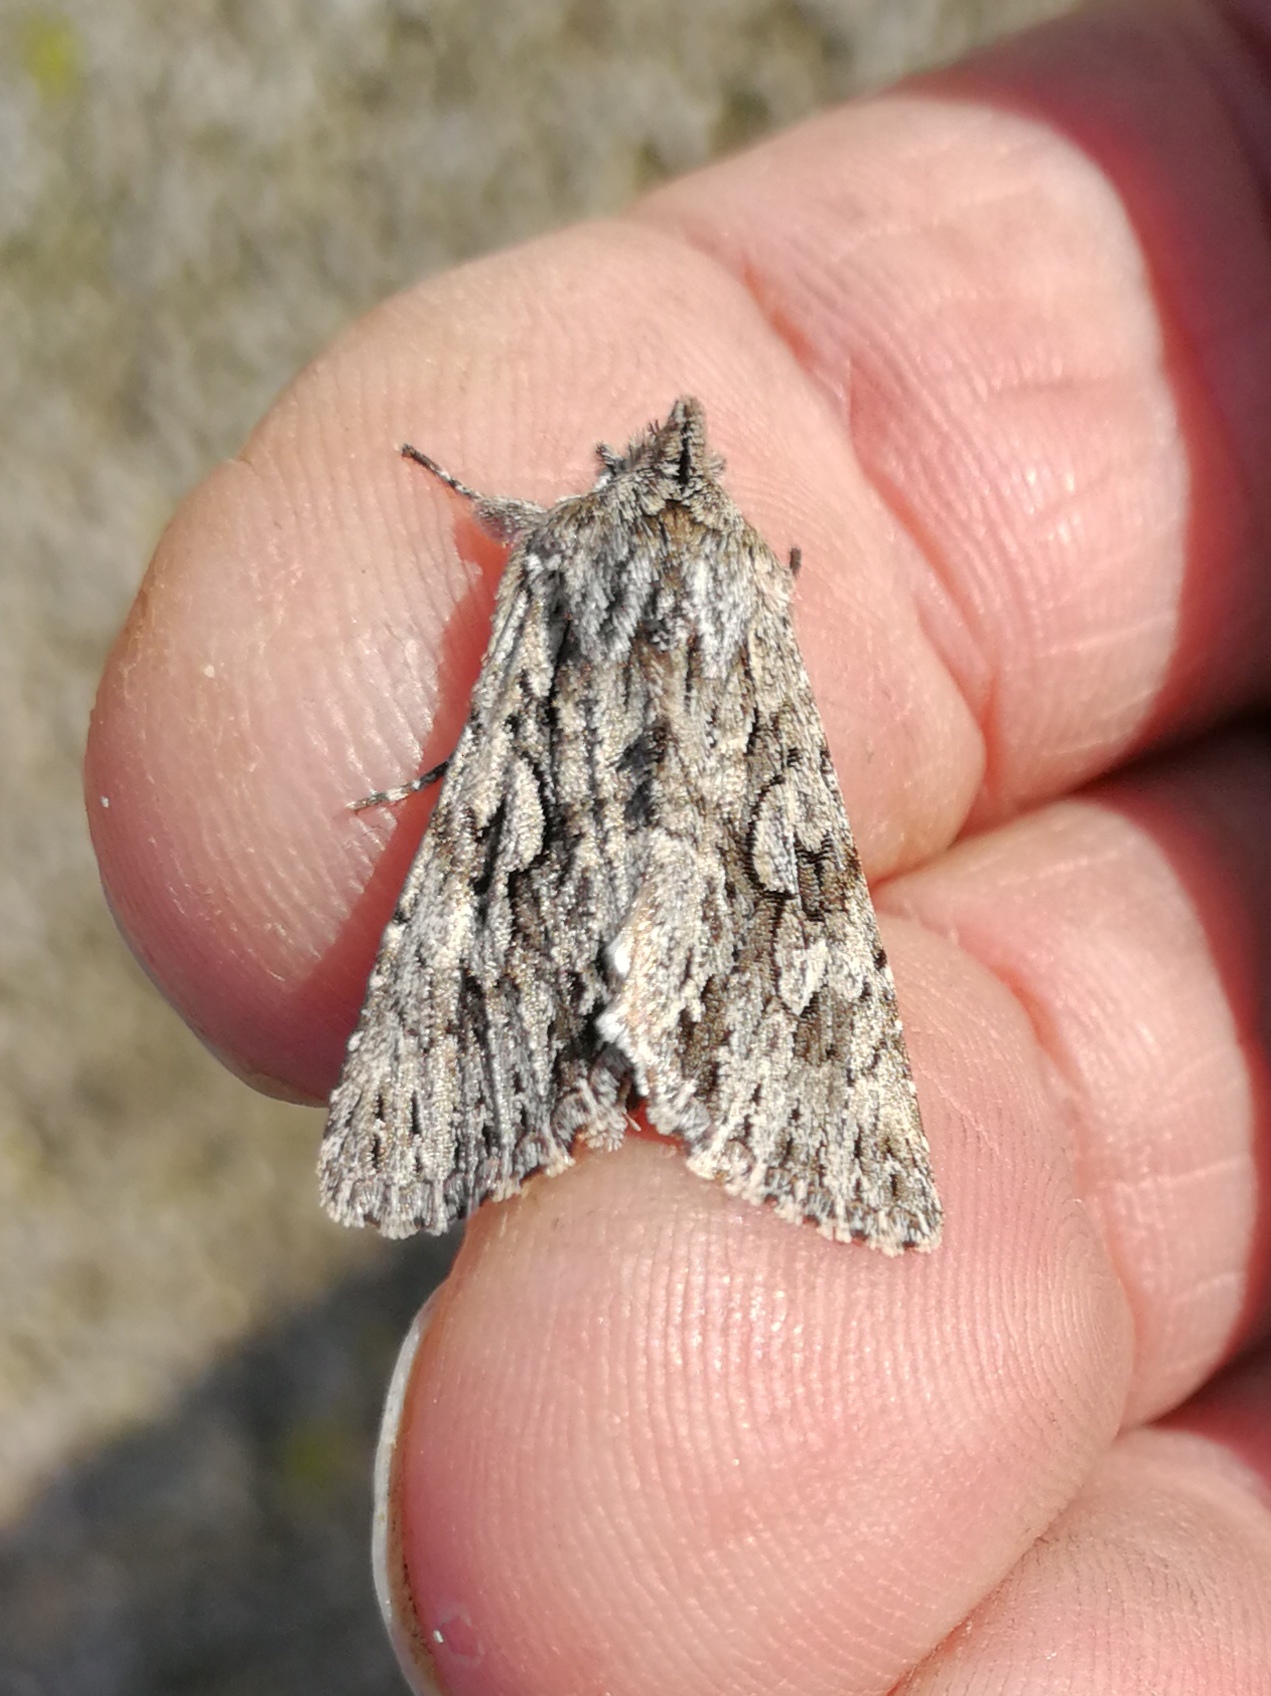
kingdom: Animalia
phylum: Arthropoda
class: Insecta
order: Lepidoptera
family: Noctuidae
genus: Xylocampa
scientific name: Xylocampa areola
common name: Early grey
